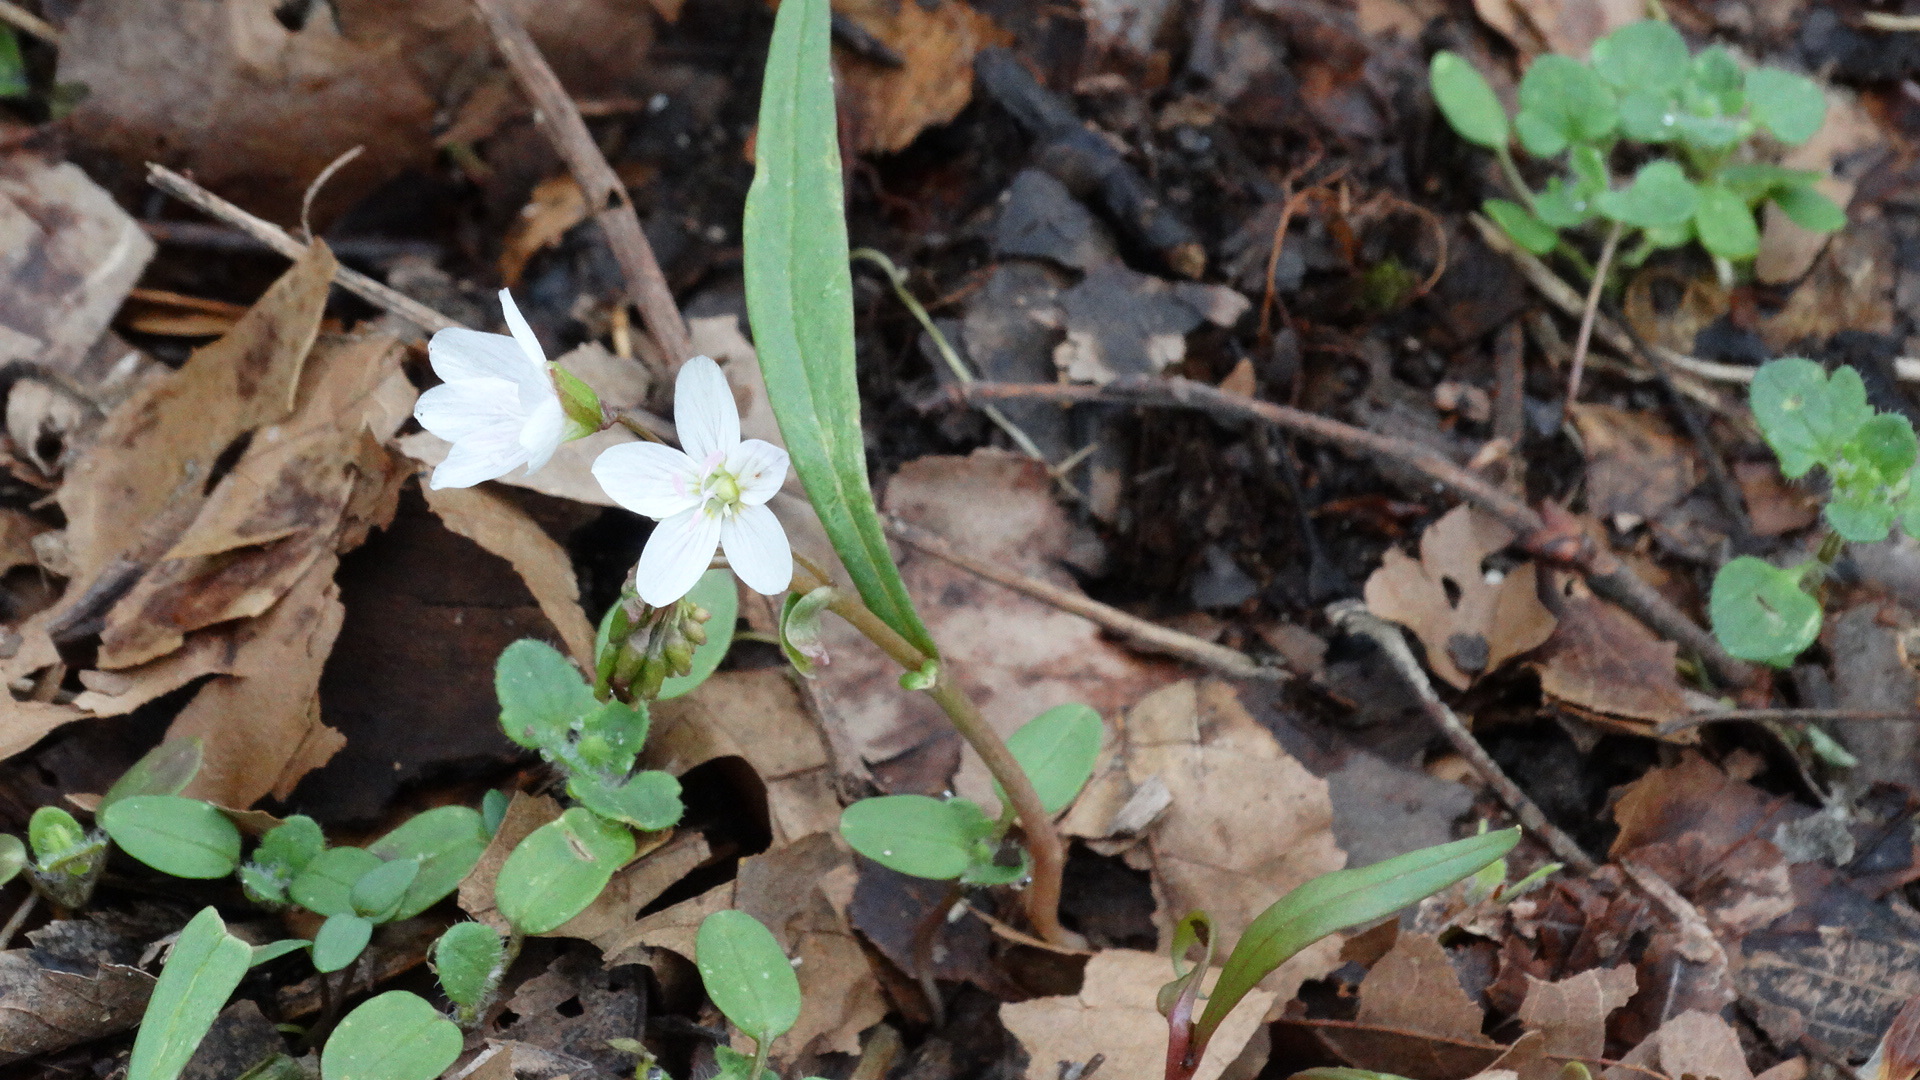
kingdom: Plantae
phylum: Tracheophyta
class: Magnoliopsida
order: Caryophyllales
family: Montiaceae
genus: Claytonia
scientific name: Claytonia virginica
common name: Virginia springbeauty
